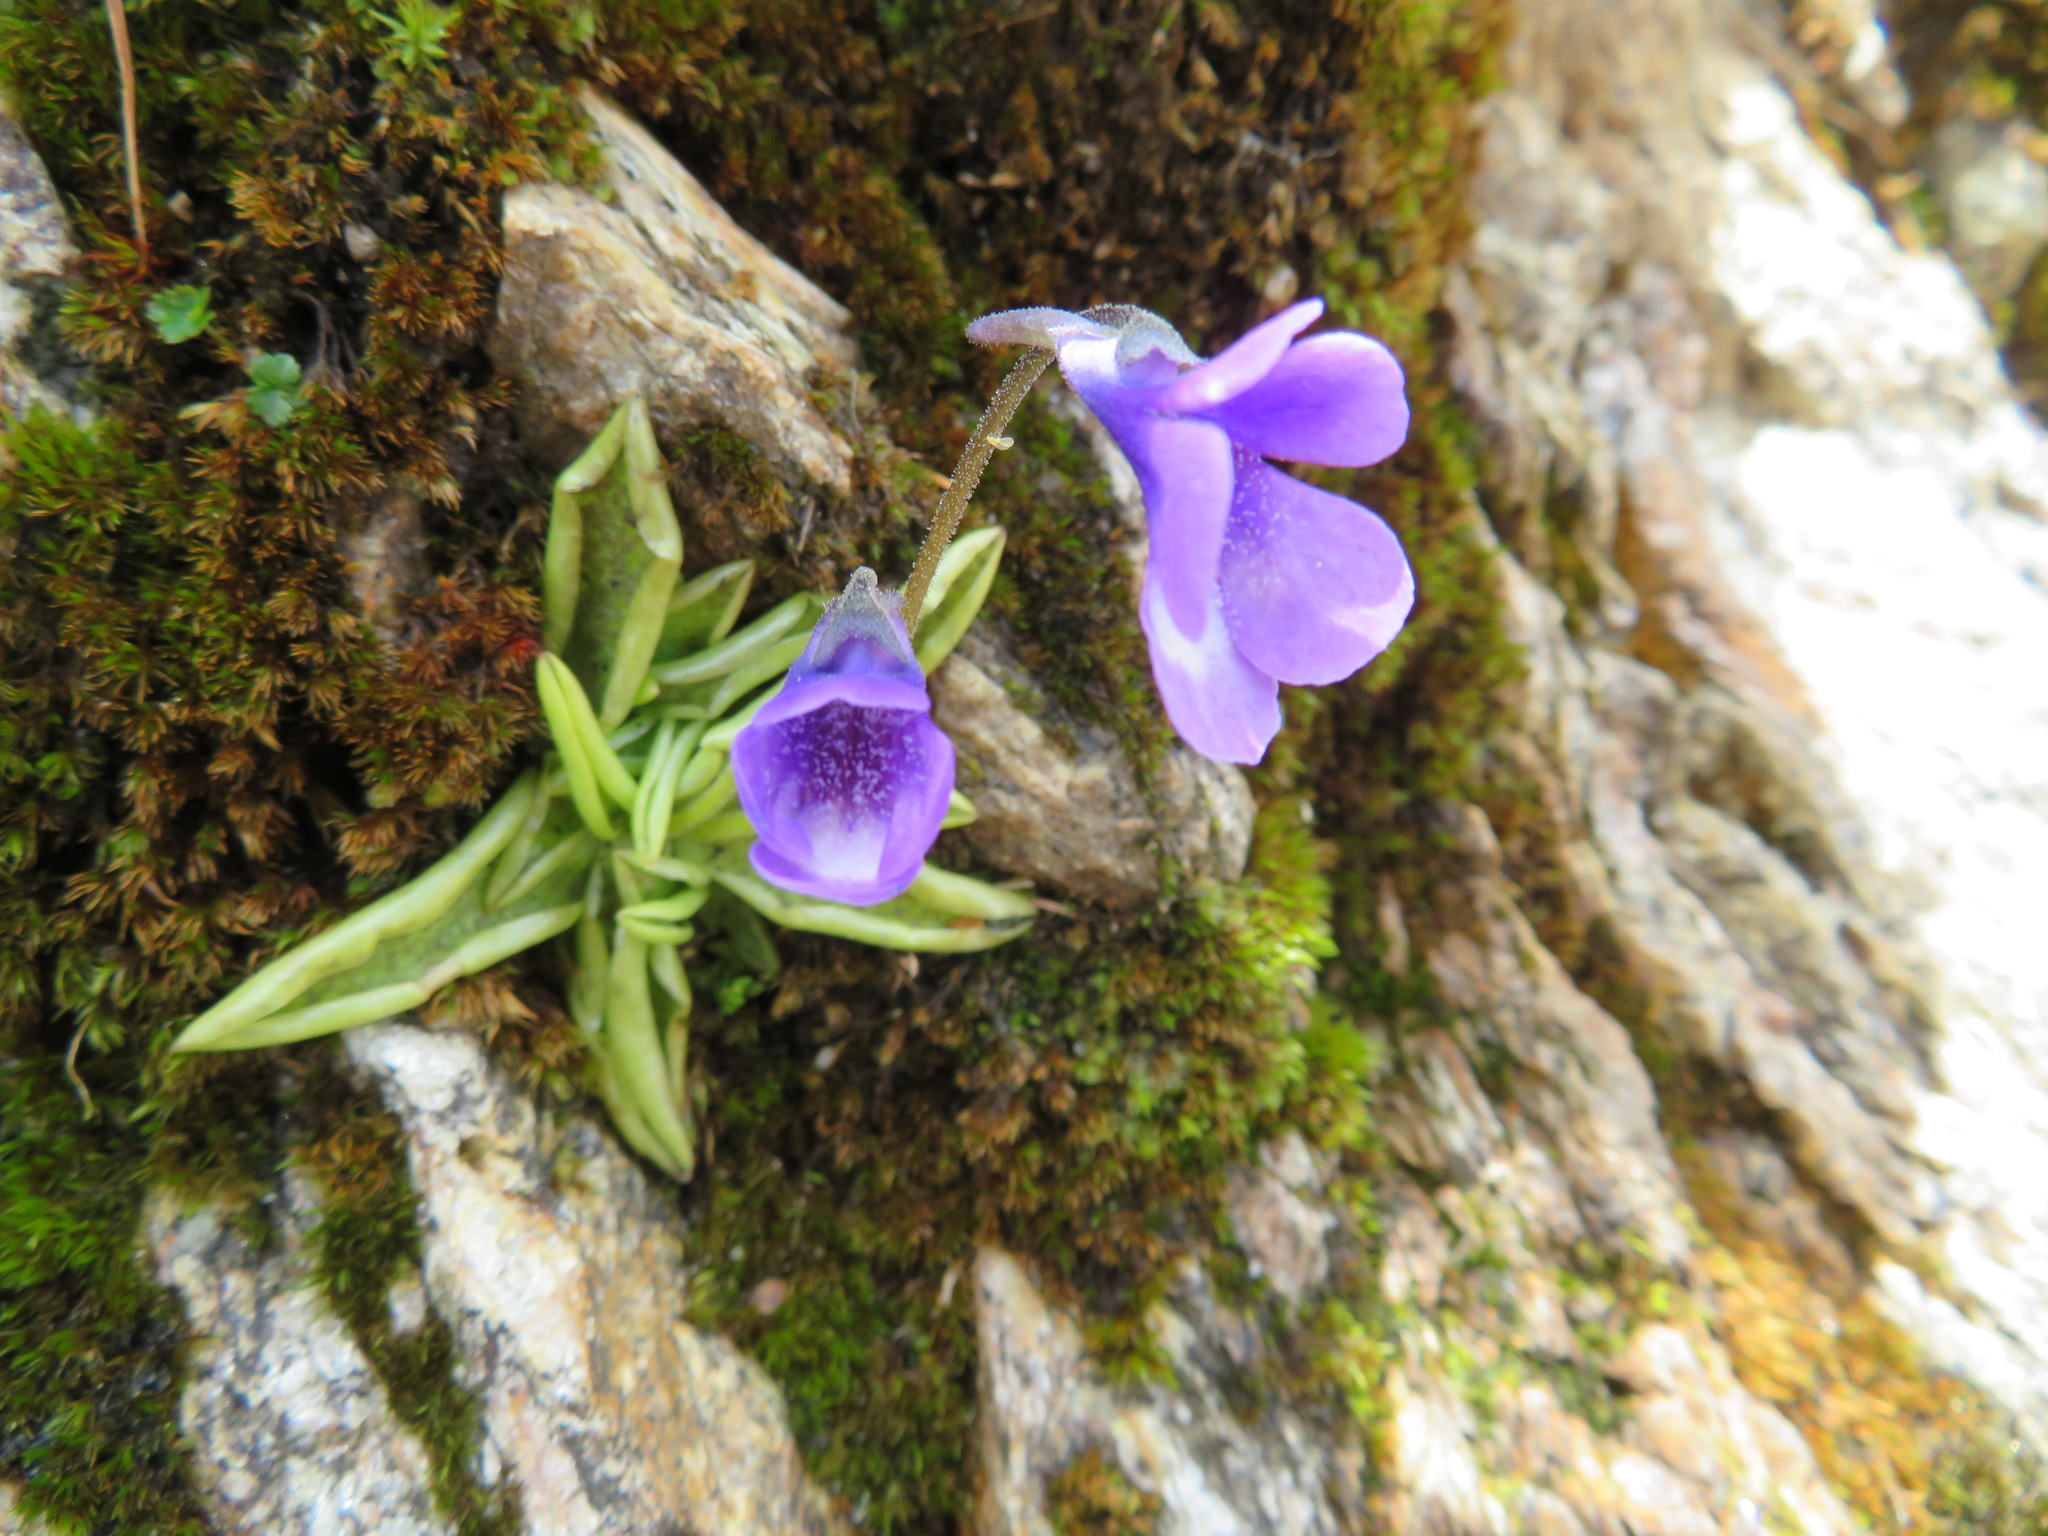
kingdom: Plantae
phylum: Tracheophyta
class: Magnoliopsida
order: Lamiales
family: Lentibulariaceae
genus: Pinguicula
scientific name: Pinguicula leptoceras
